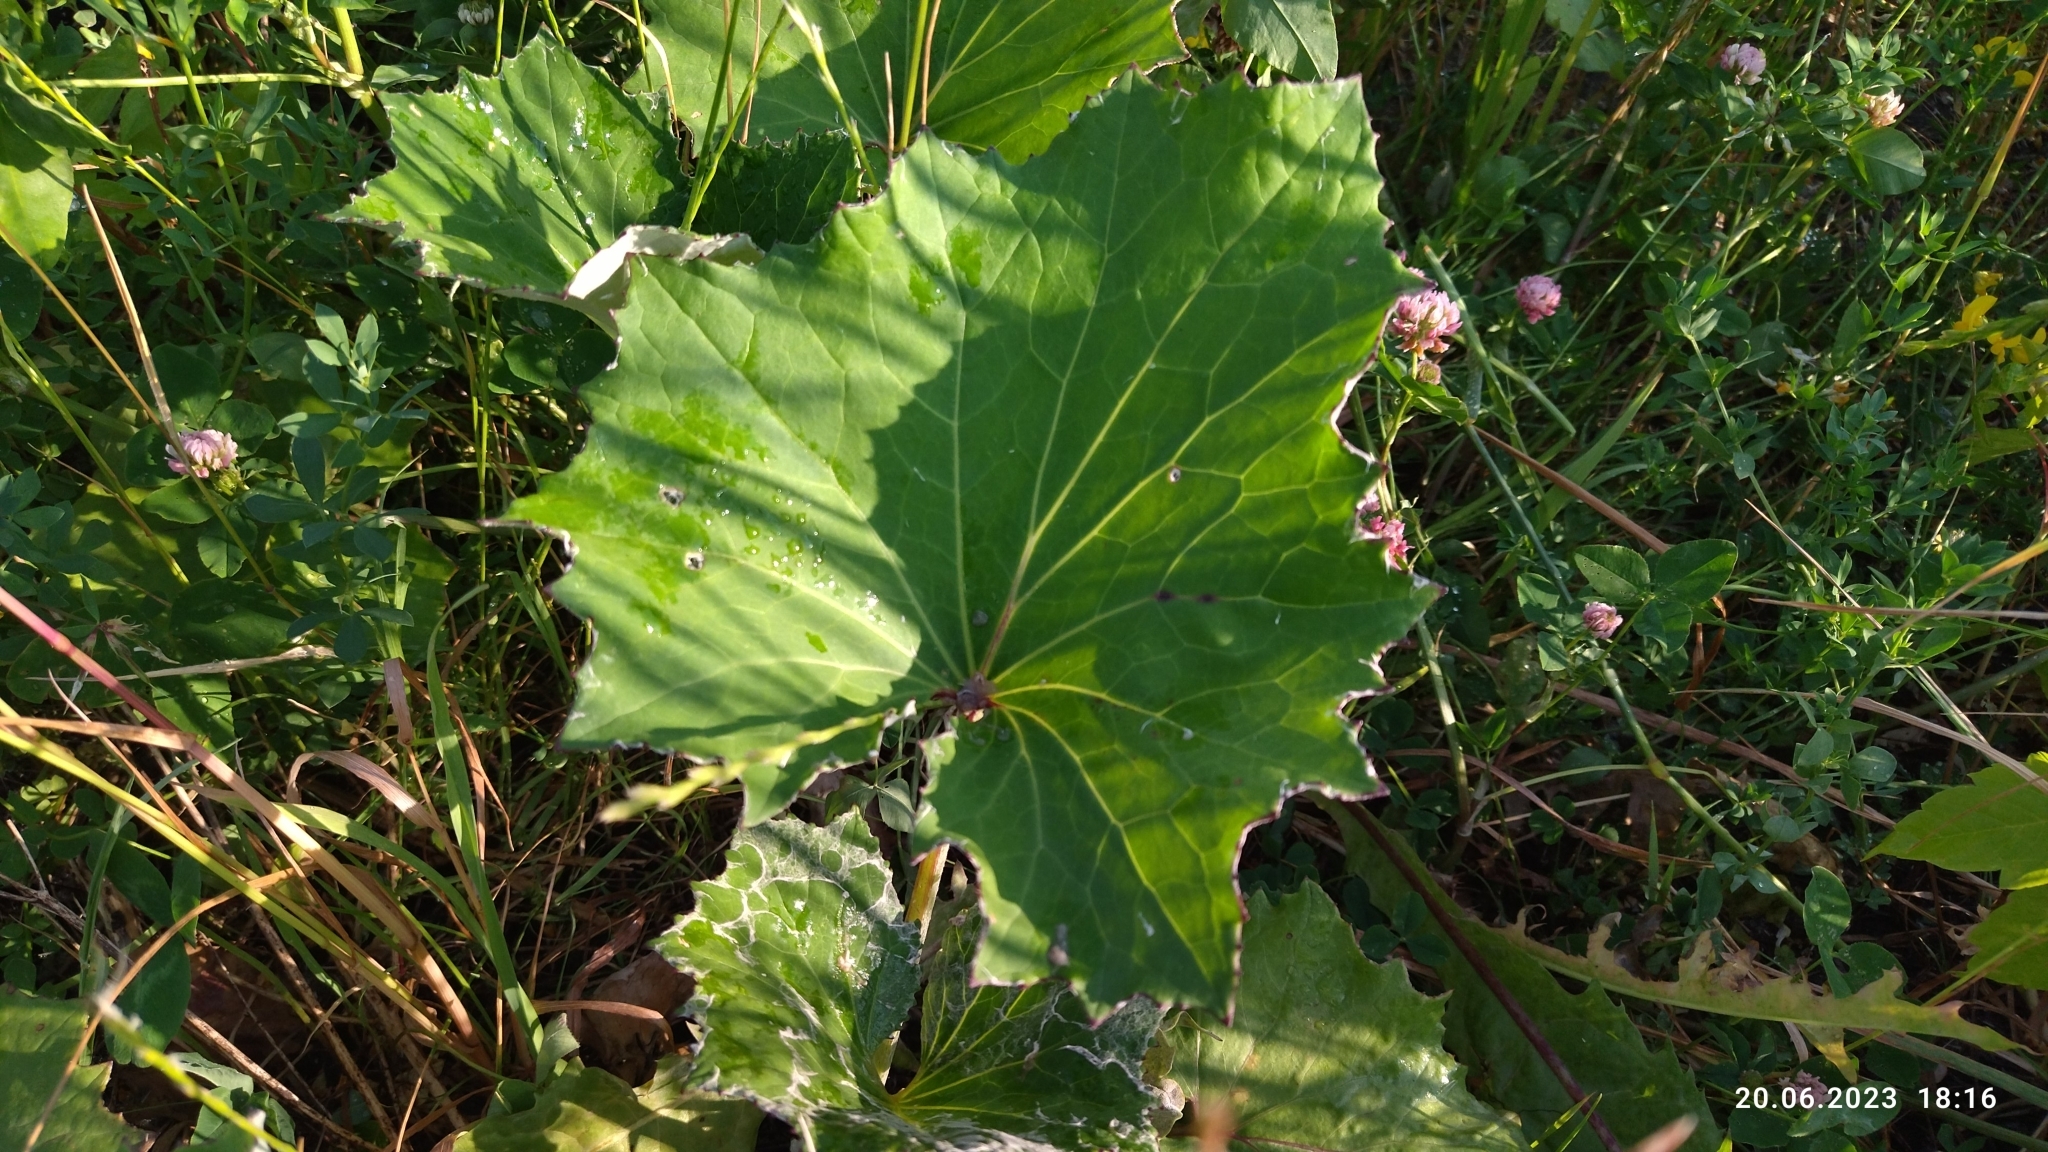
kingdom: Plantae
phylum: Tracheophyta
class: Magnoliopsida
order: Asterales
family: Asteraceae
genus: Tussilago
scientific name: Tussilago farfara
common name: Coltsfoot
